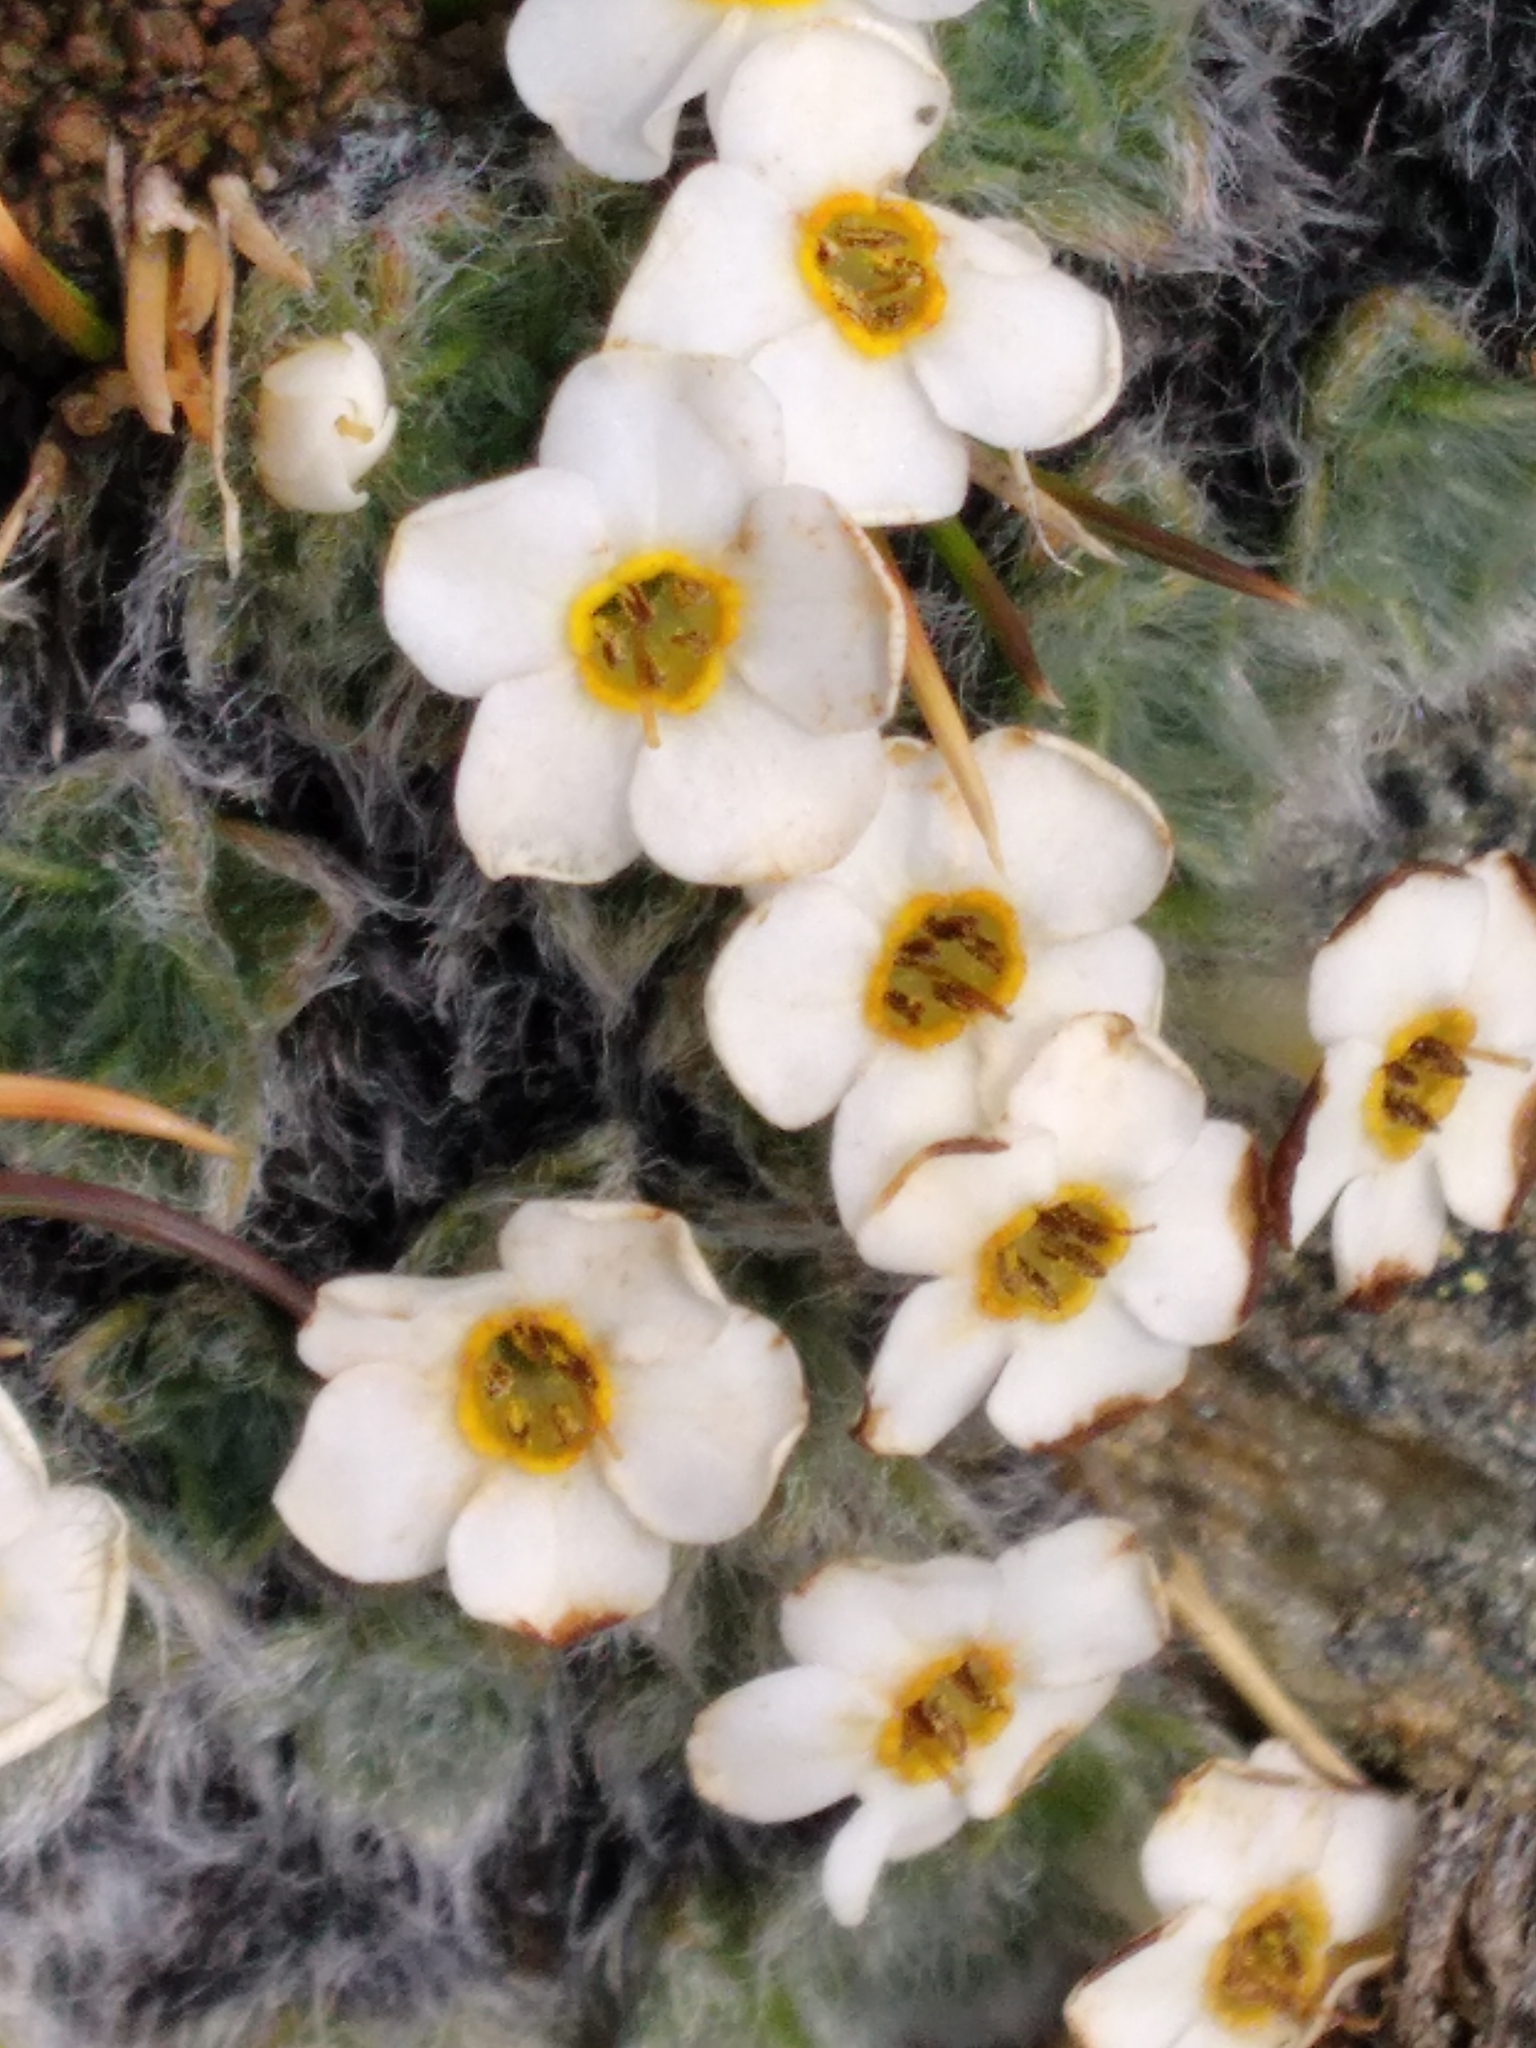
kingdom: Plantae
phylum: Tracheophyta
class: Magnoliopsida
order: Boraginales
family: Boraginaceae
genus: Myosotis
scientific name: Myosotis pulvinaris
